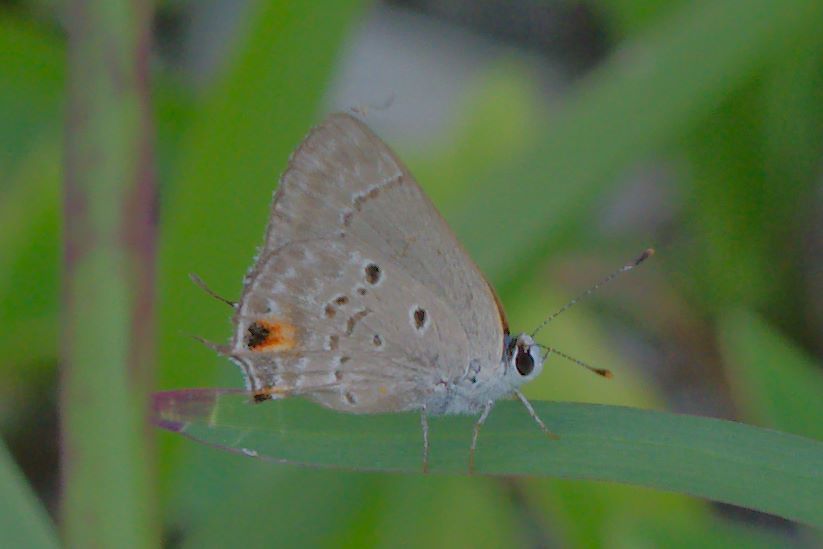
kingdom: Animalia
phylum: Arthropoda
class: Insecta
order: Lepidoptera
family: Lycaenidae
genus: Callicista
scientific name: Callicista columella
